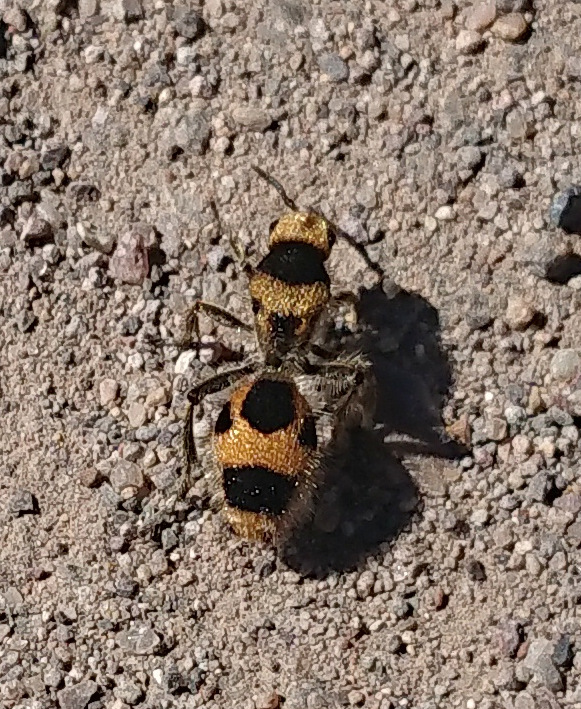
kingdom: Animalia
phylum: Arthropoda
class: Insecta
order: Hymenoptera
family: Mutillidae
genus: Dasymutilla
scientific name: Dasymutilla pulchra
